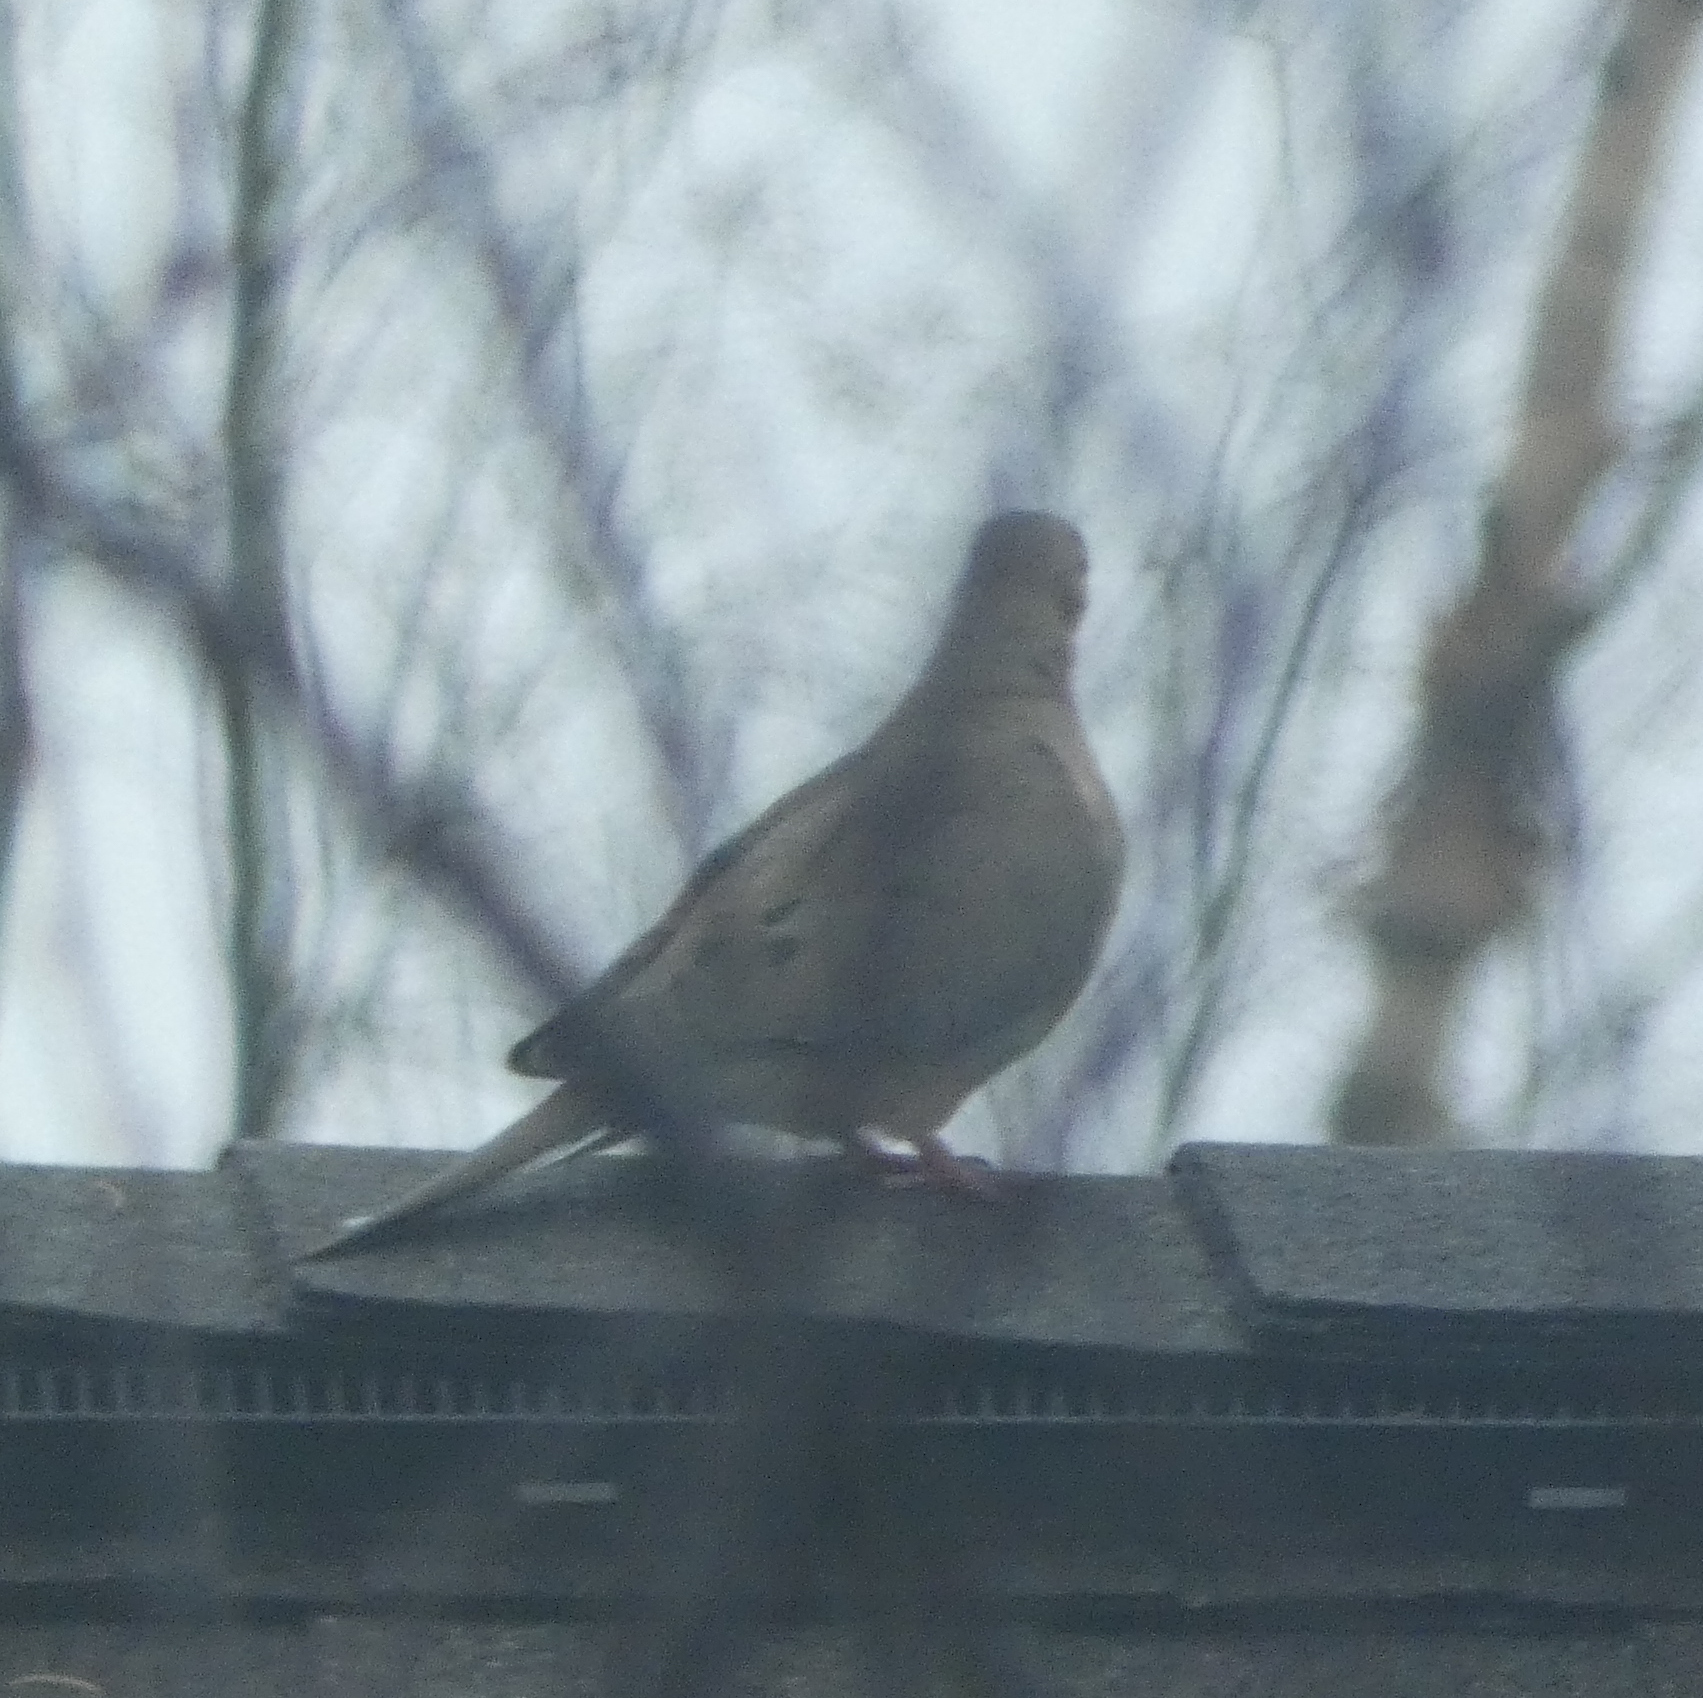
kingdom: Animalia
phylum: Chordata
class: Aves
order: Columbiformes
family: Columbidae
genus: Zenaida
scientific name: Zenaida macroura
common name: Mourning dove
